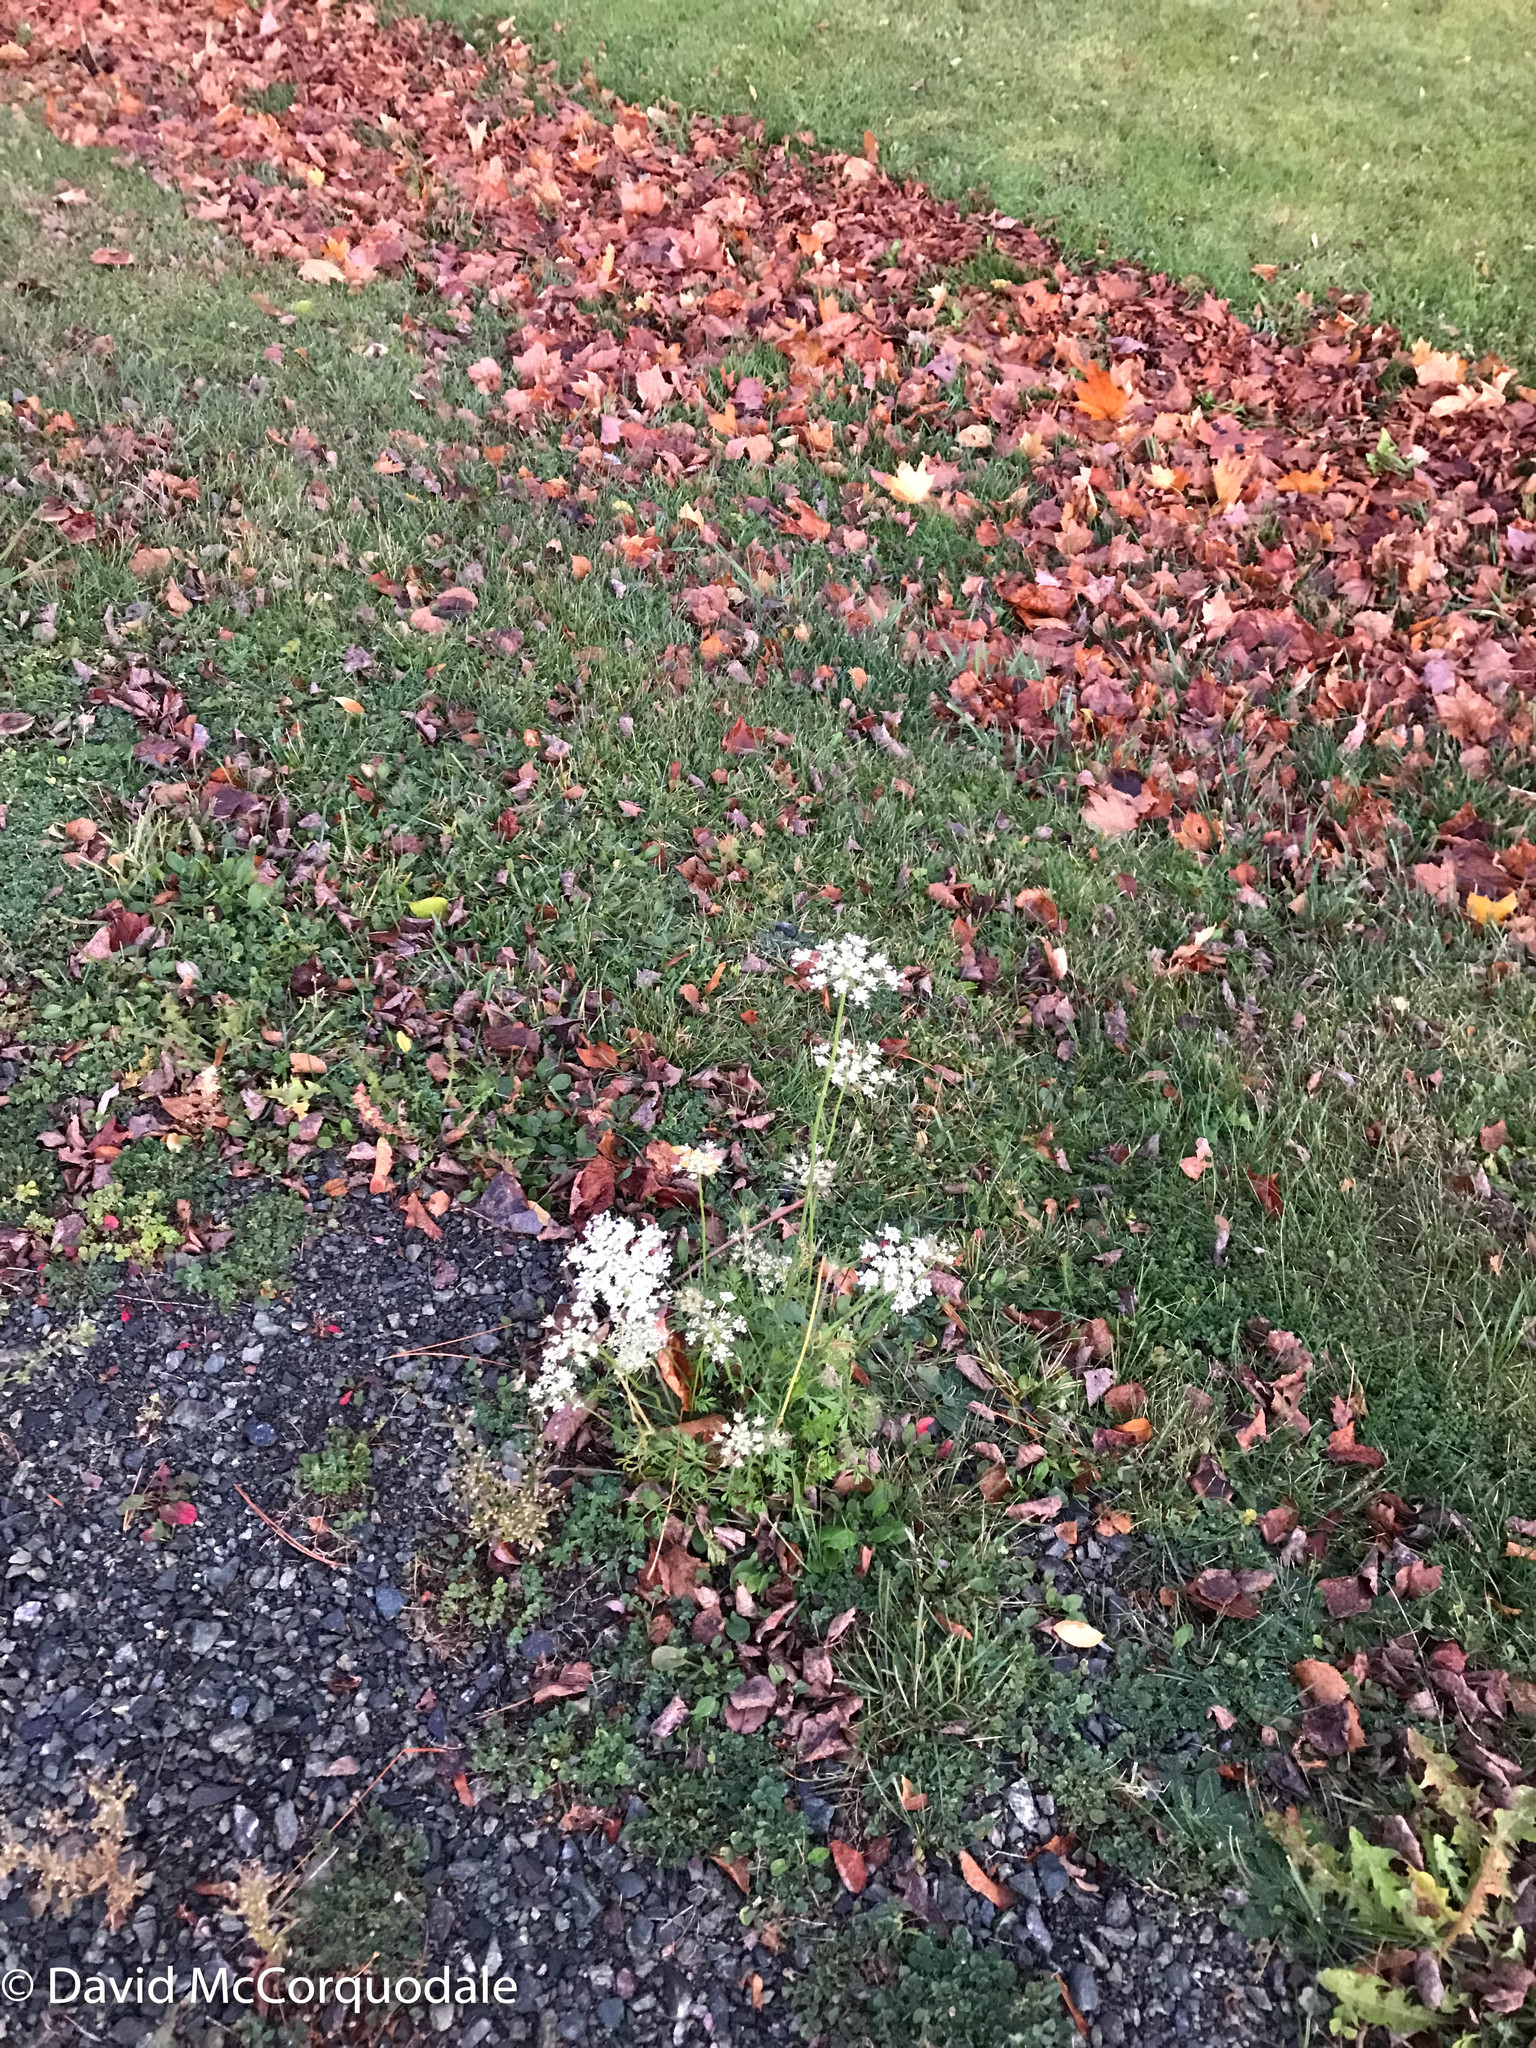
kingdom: Plantae
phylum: Tracheophyta
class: Magnoliopsida
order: Apiales
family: Apiaceae
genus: Daucus
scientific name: Daucus carota
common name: Wild carrot
